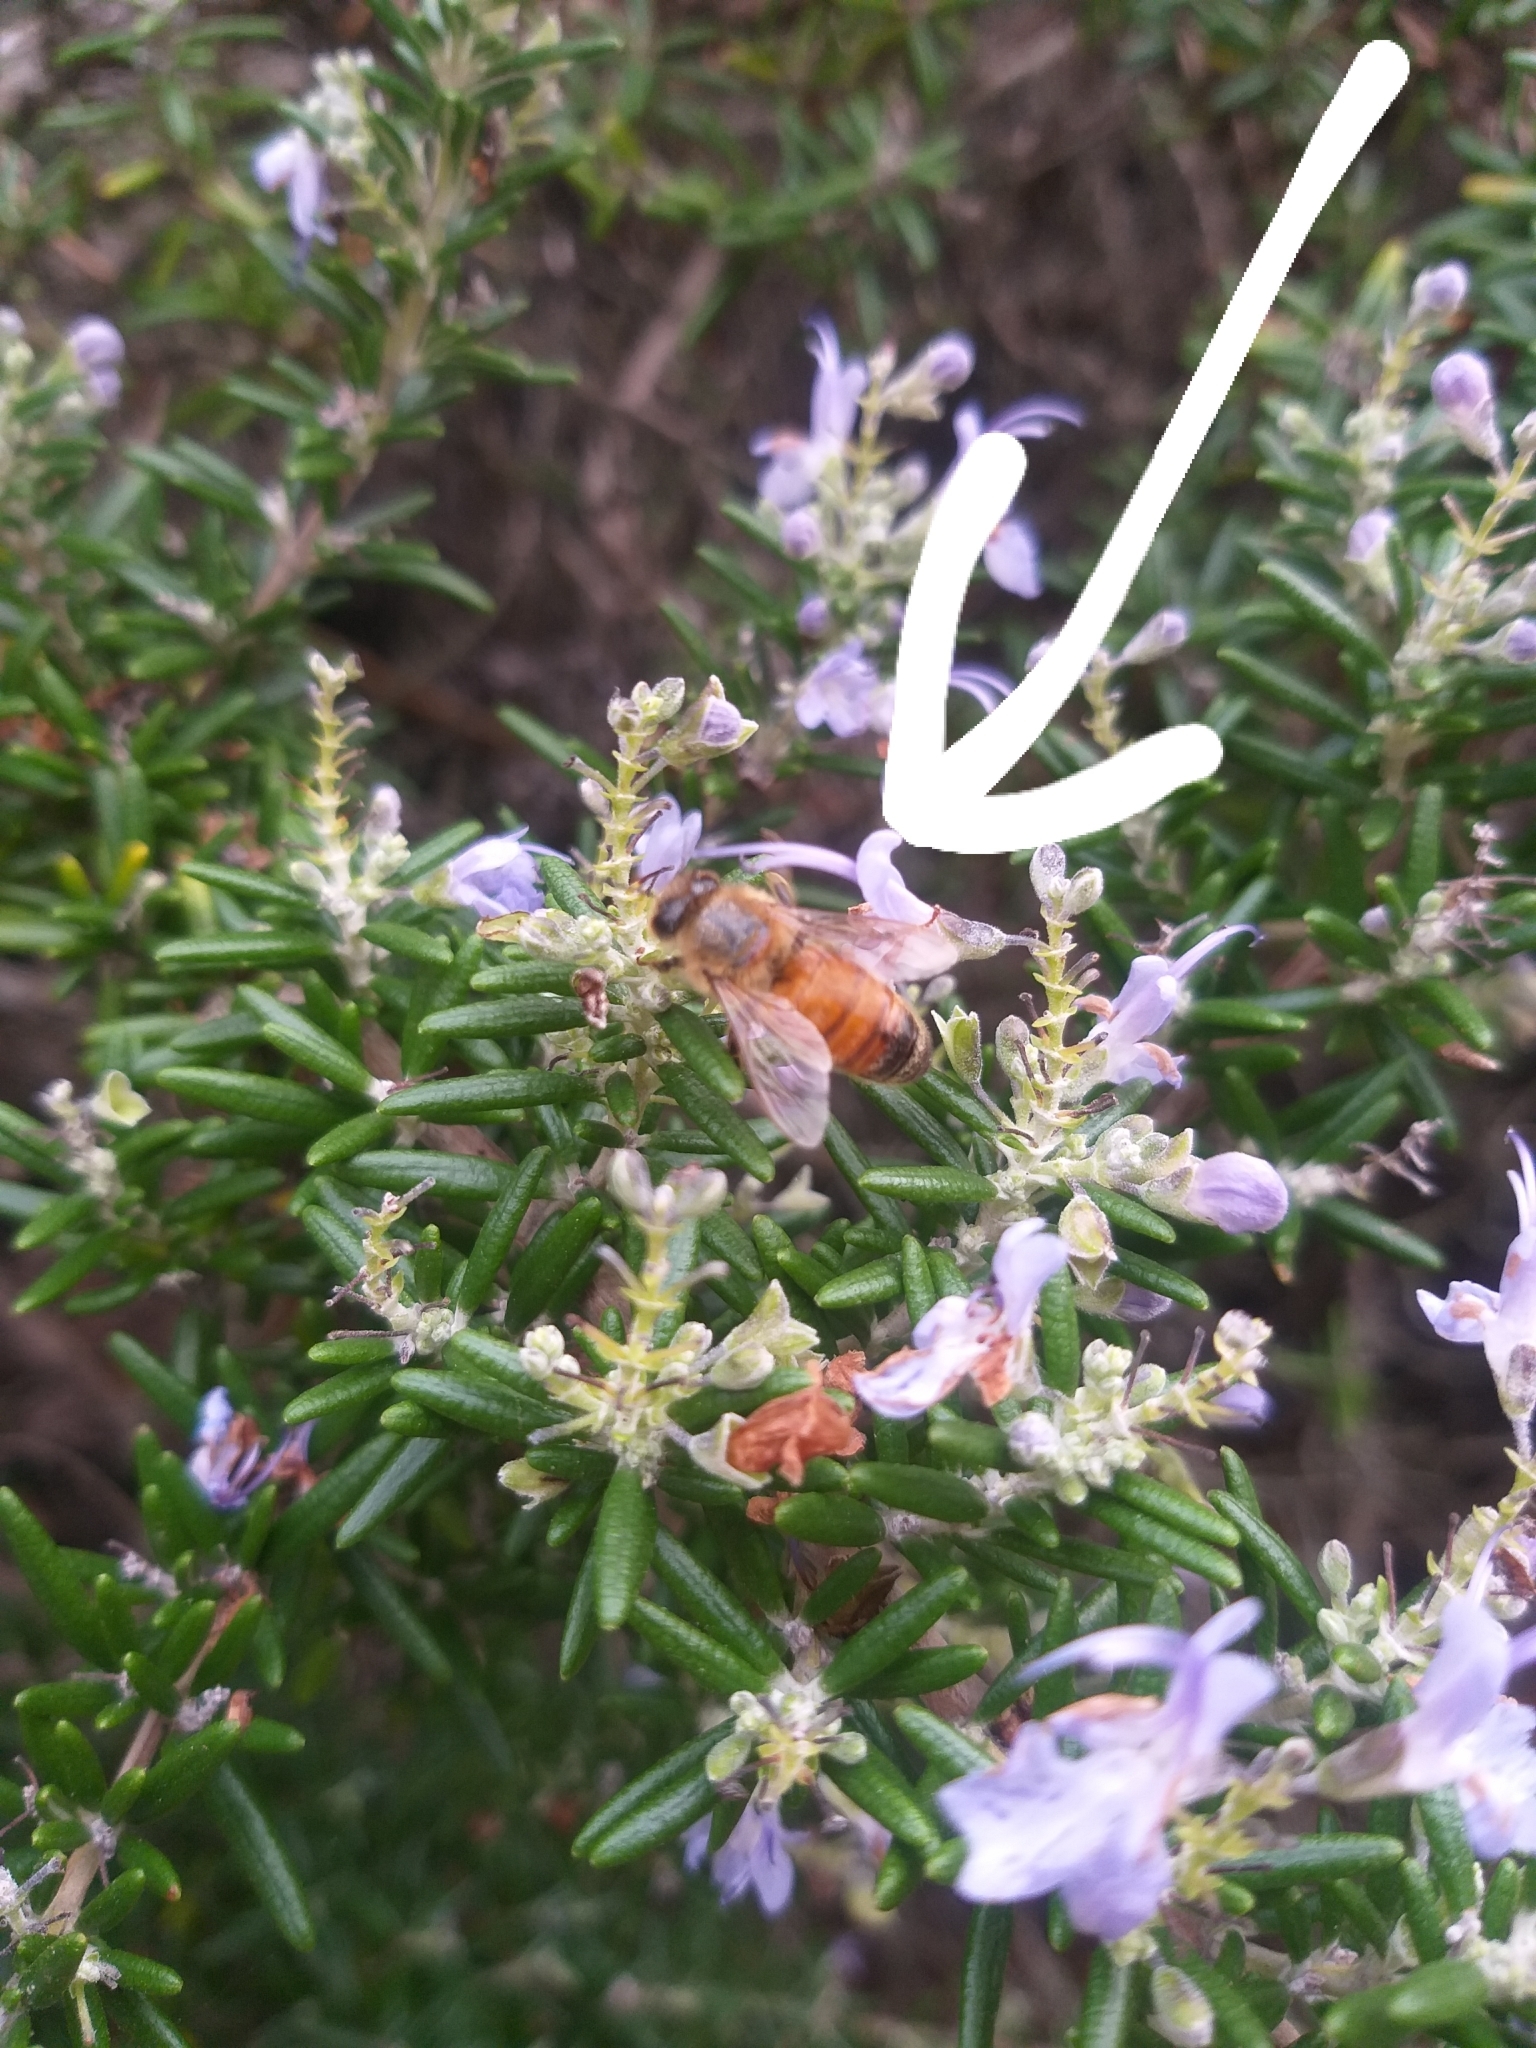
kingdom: Animalia
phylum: Arthropoda
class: Insecta
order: Hymenoptera
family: Apidae
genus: Apis
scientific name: Apis mellifera
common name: Honey bee
